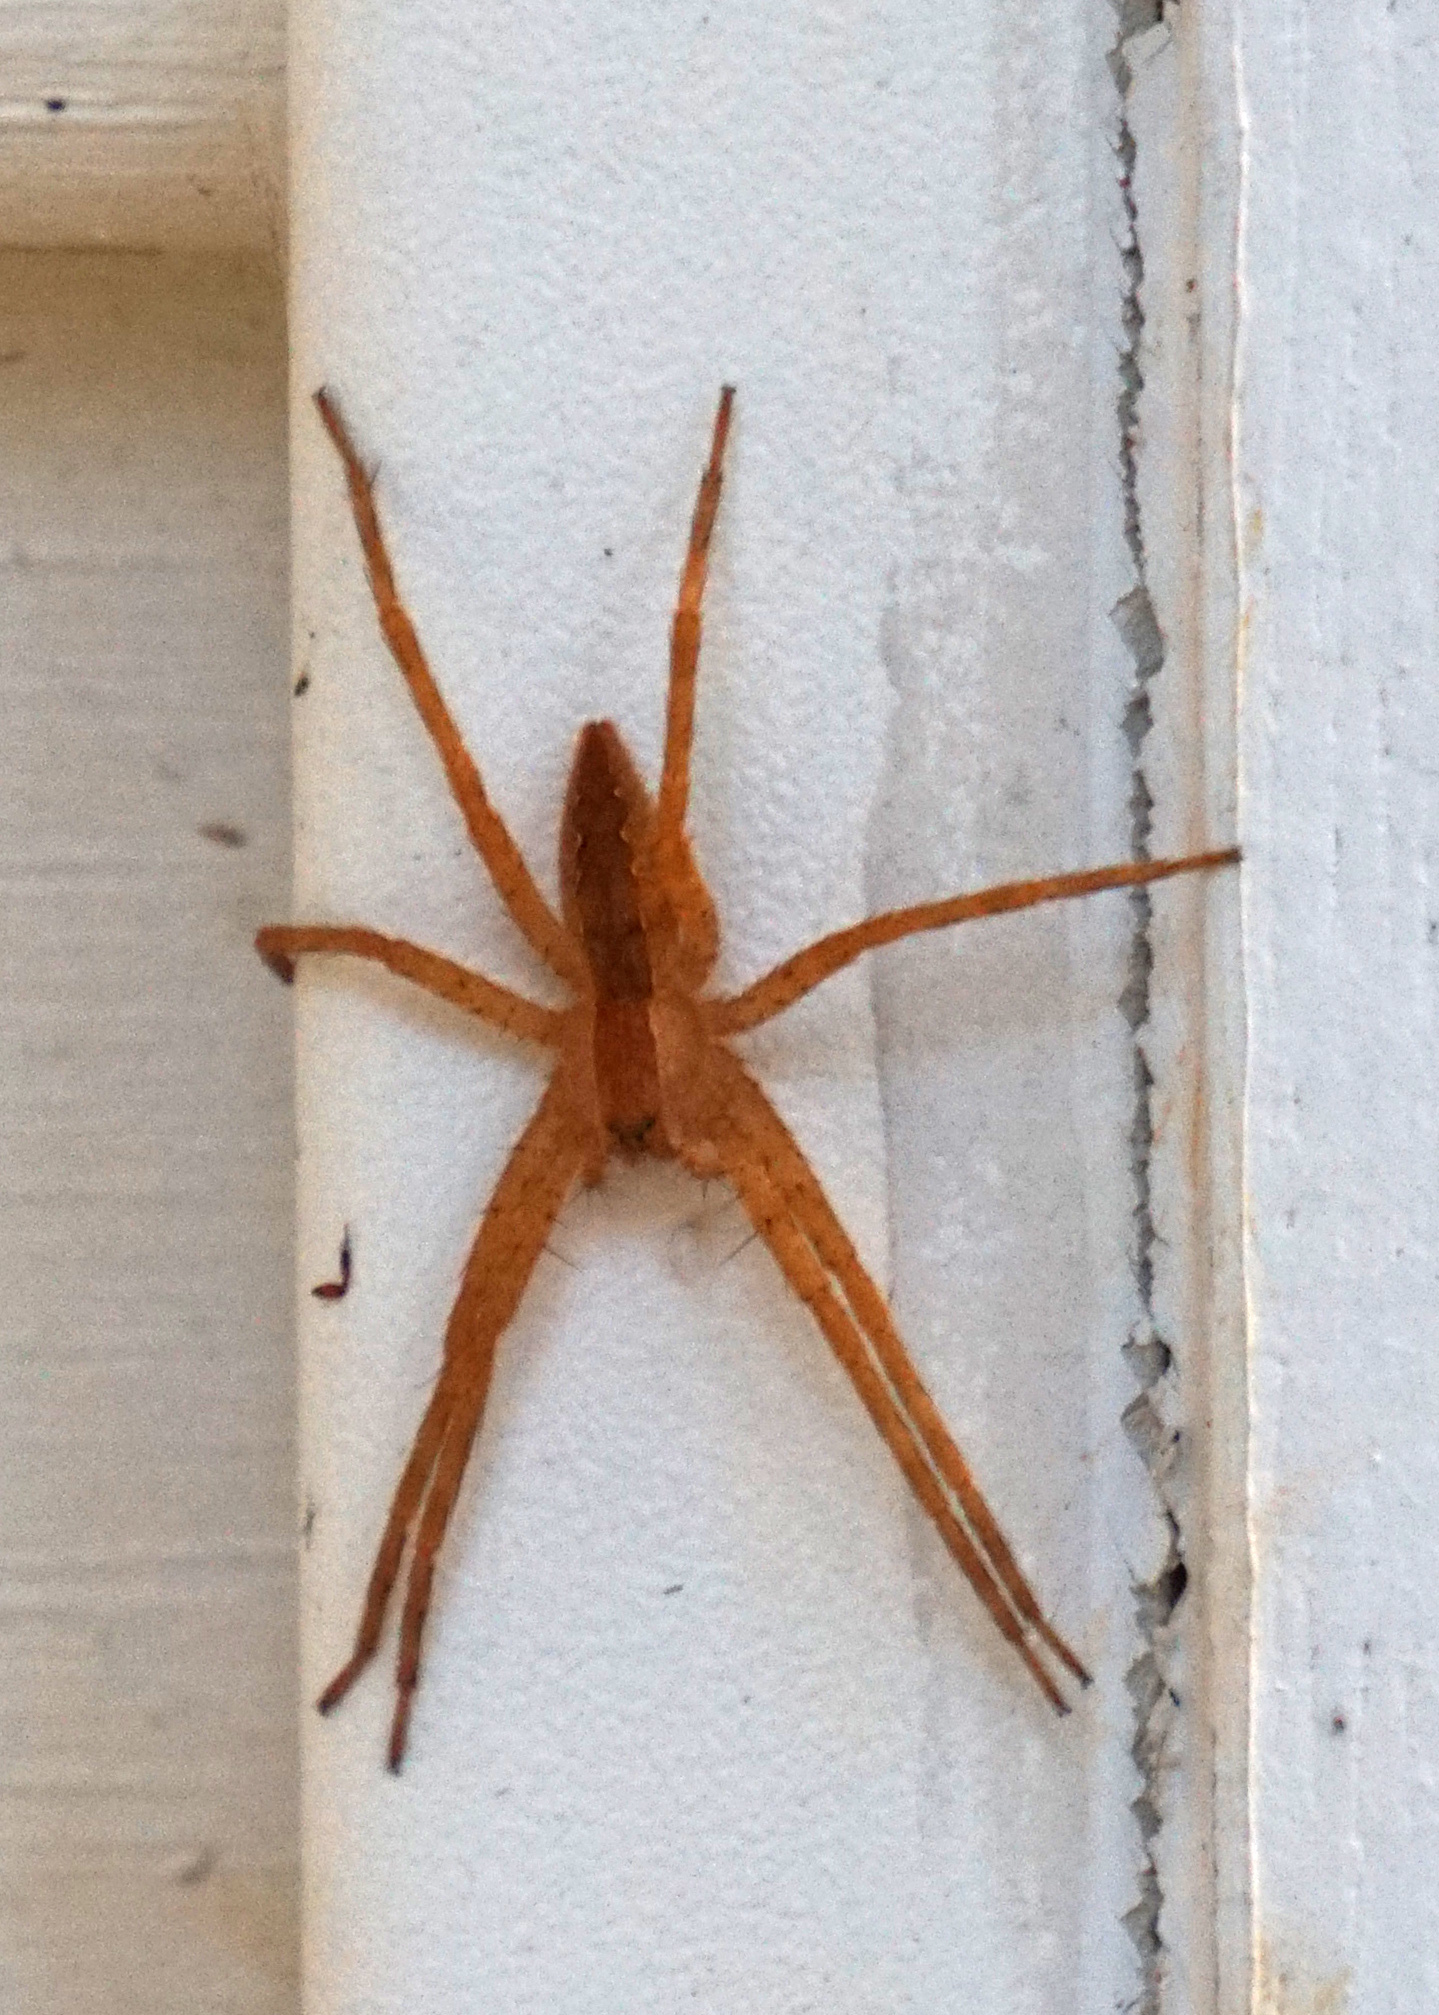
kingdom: Animalia
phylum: Arthropoda
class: Arachnida
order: Araneae
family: Pisauridae
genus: Pisaurina
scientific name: Pisaurina mira
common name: American nursery web spider
